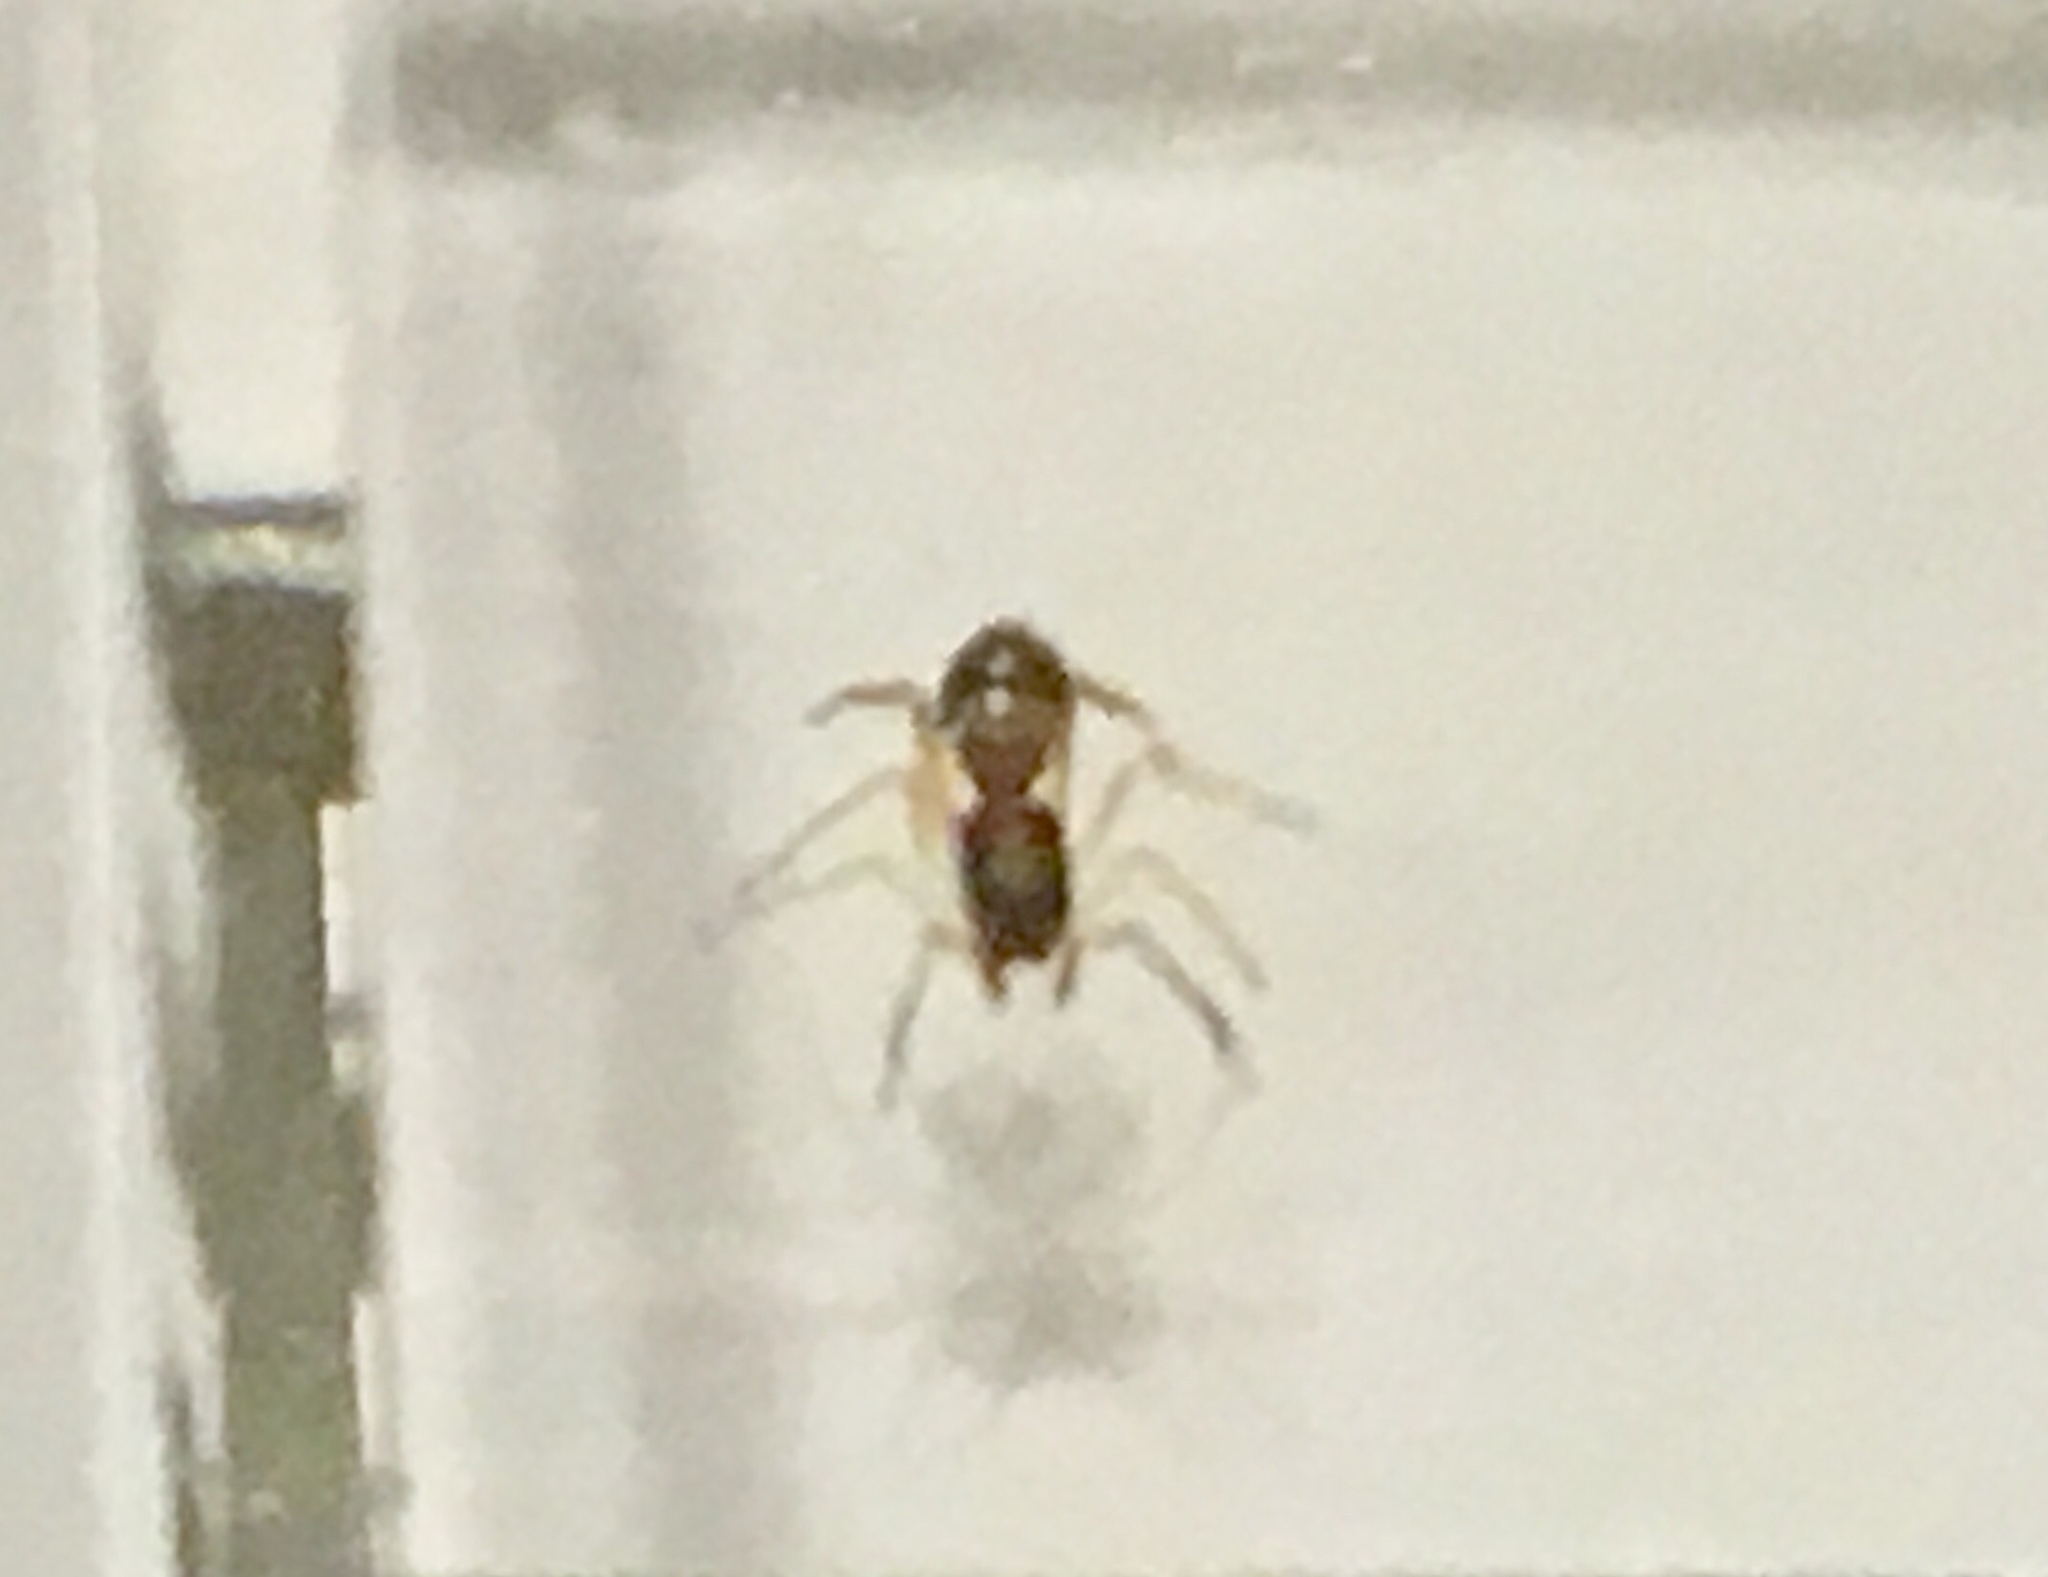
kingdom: Animalia
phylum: Arthropoda
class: Arachnida
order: Araneae
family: Salticidae
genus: Synemosyna
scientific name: Synemosyna formica
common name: Slender ant-mimic jumping spider
